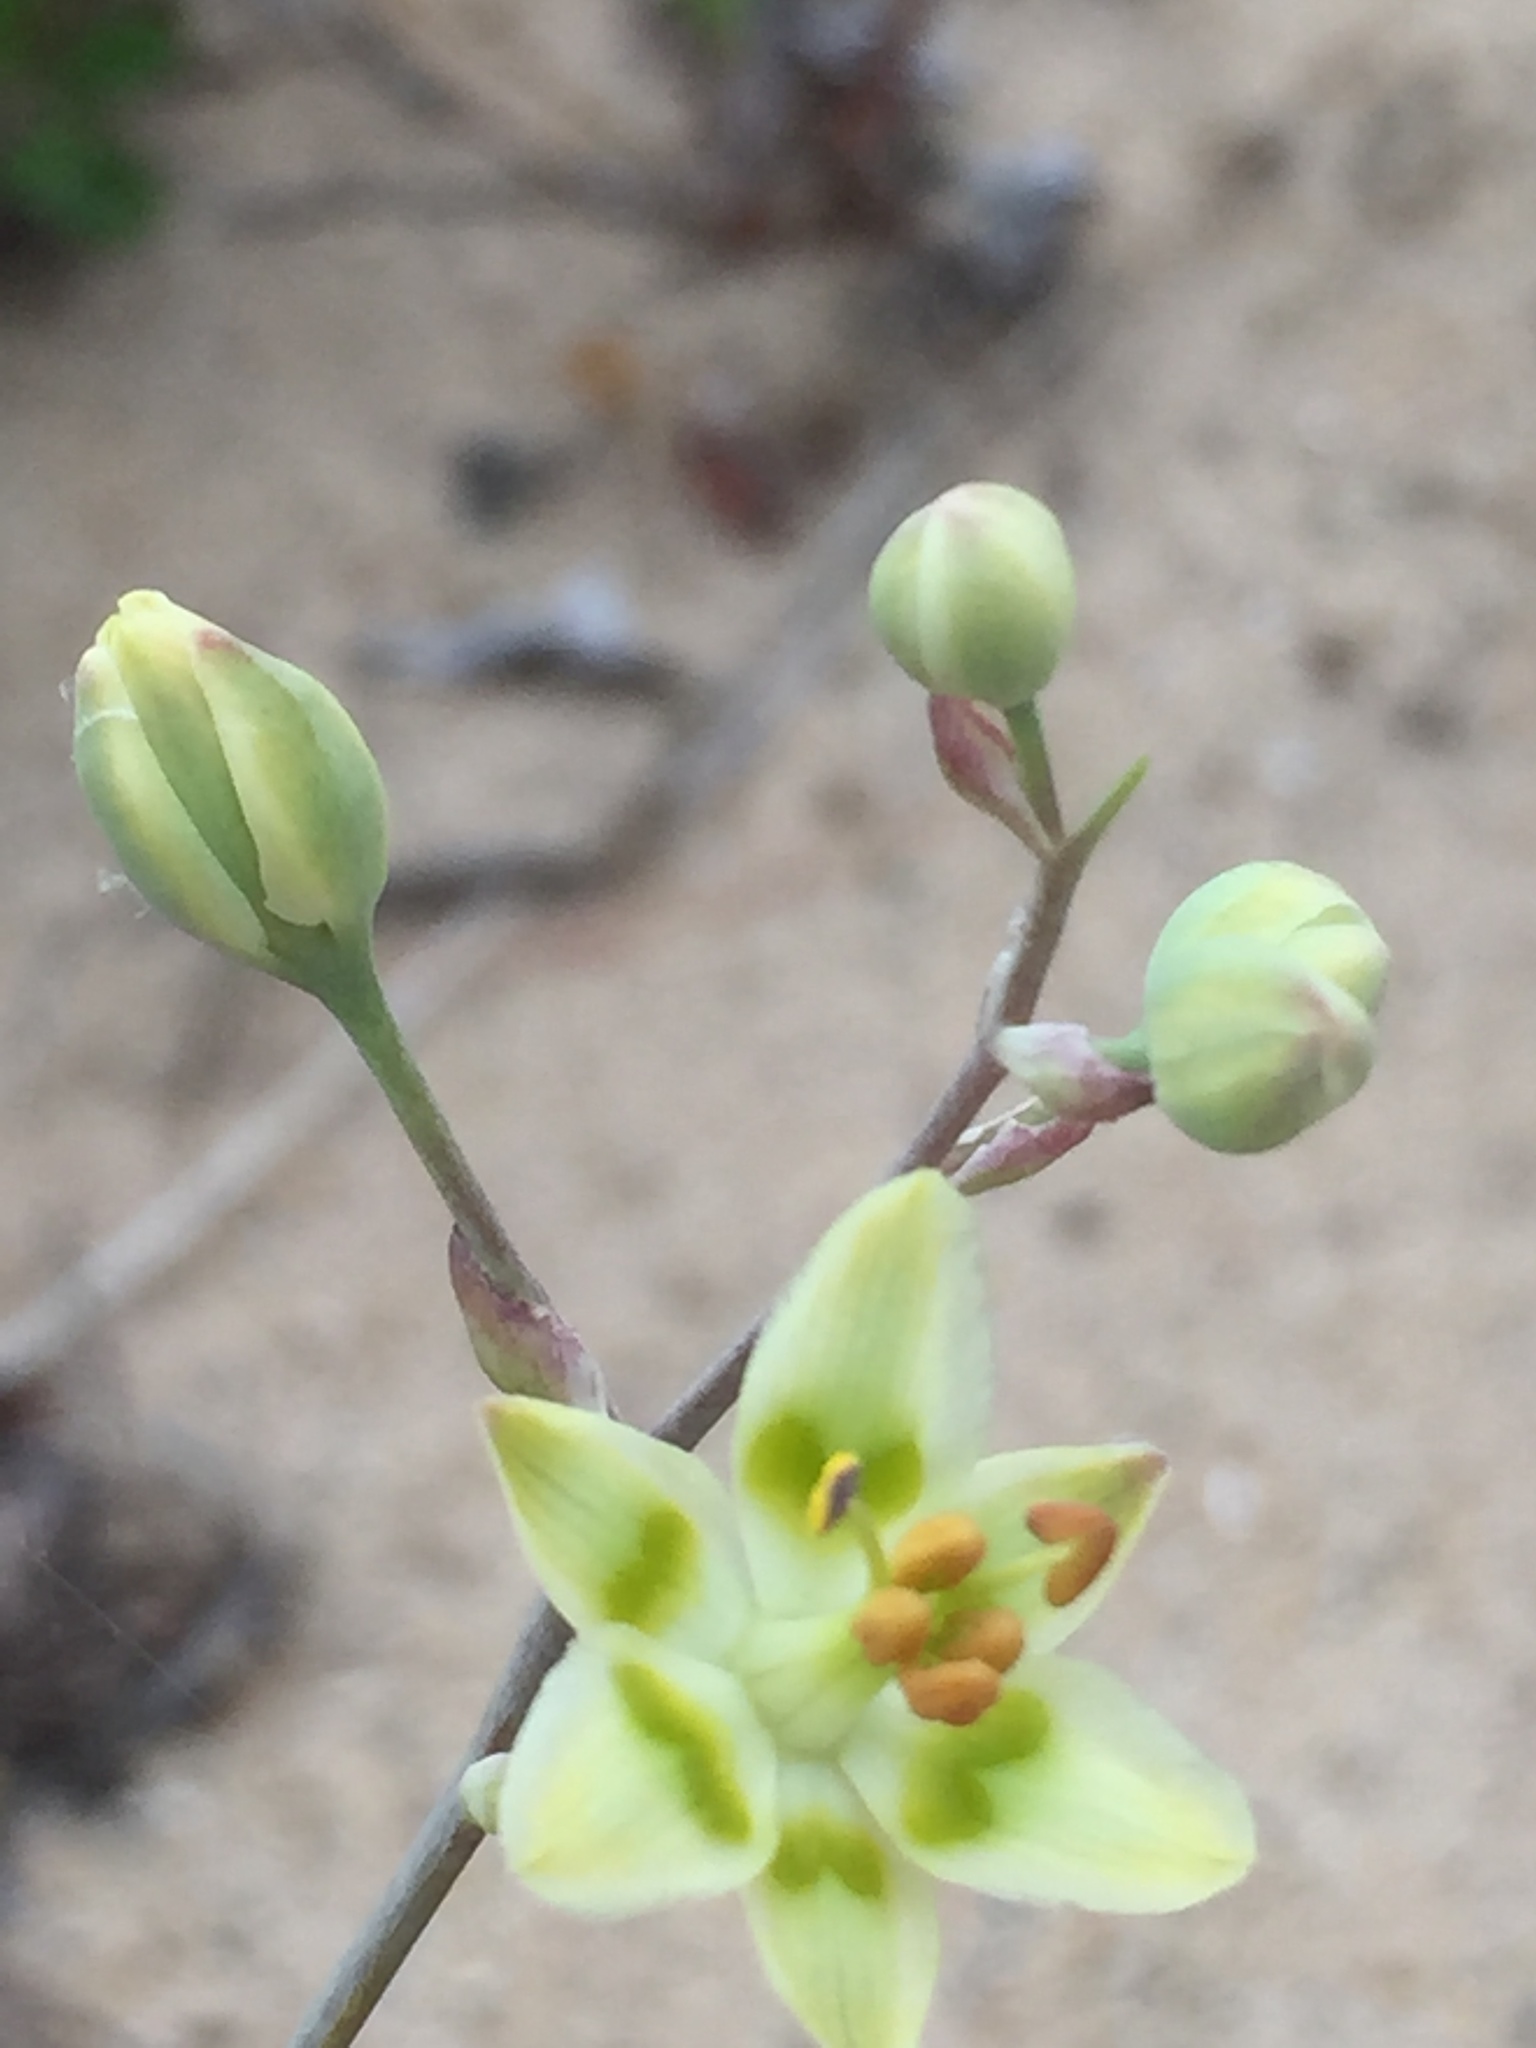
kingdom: Plantae
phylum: Tracheophyta
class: Liliopsida
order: Liliales
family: Melanthiaceae
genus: Anticlea
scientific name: Anticlea elegans
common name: Mountain death camas
